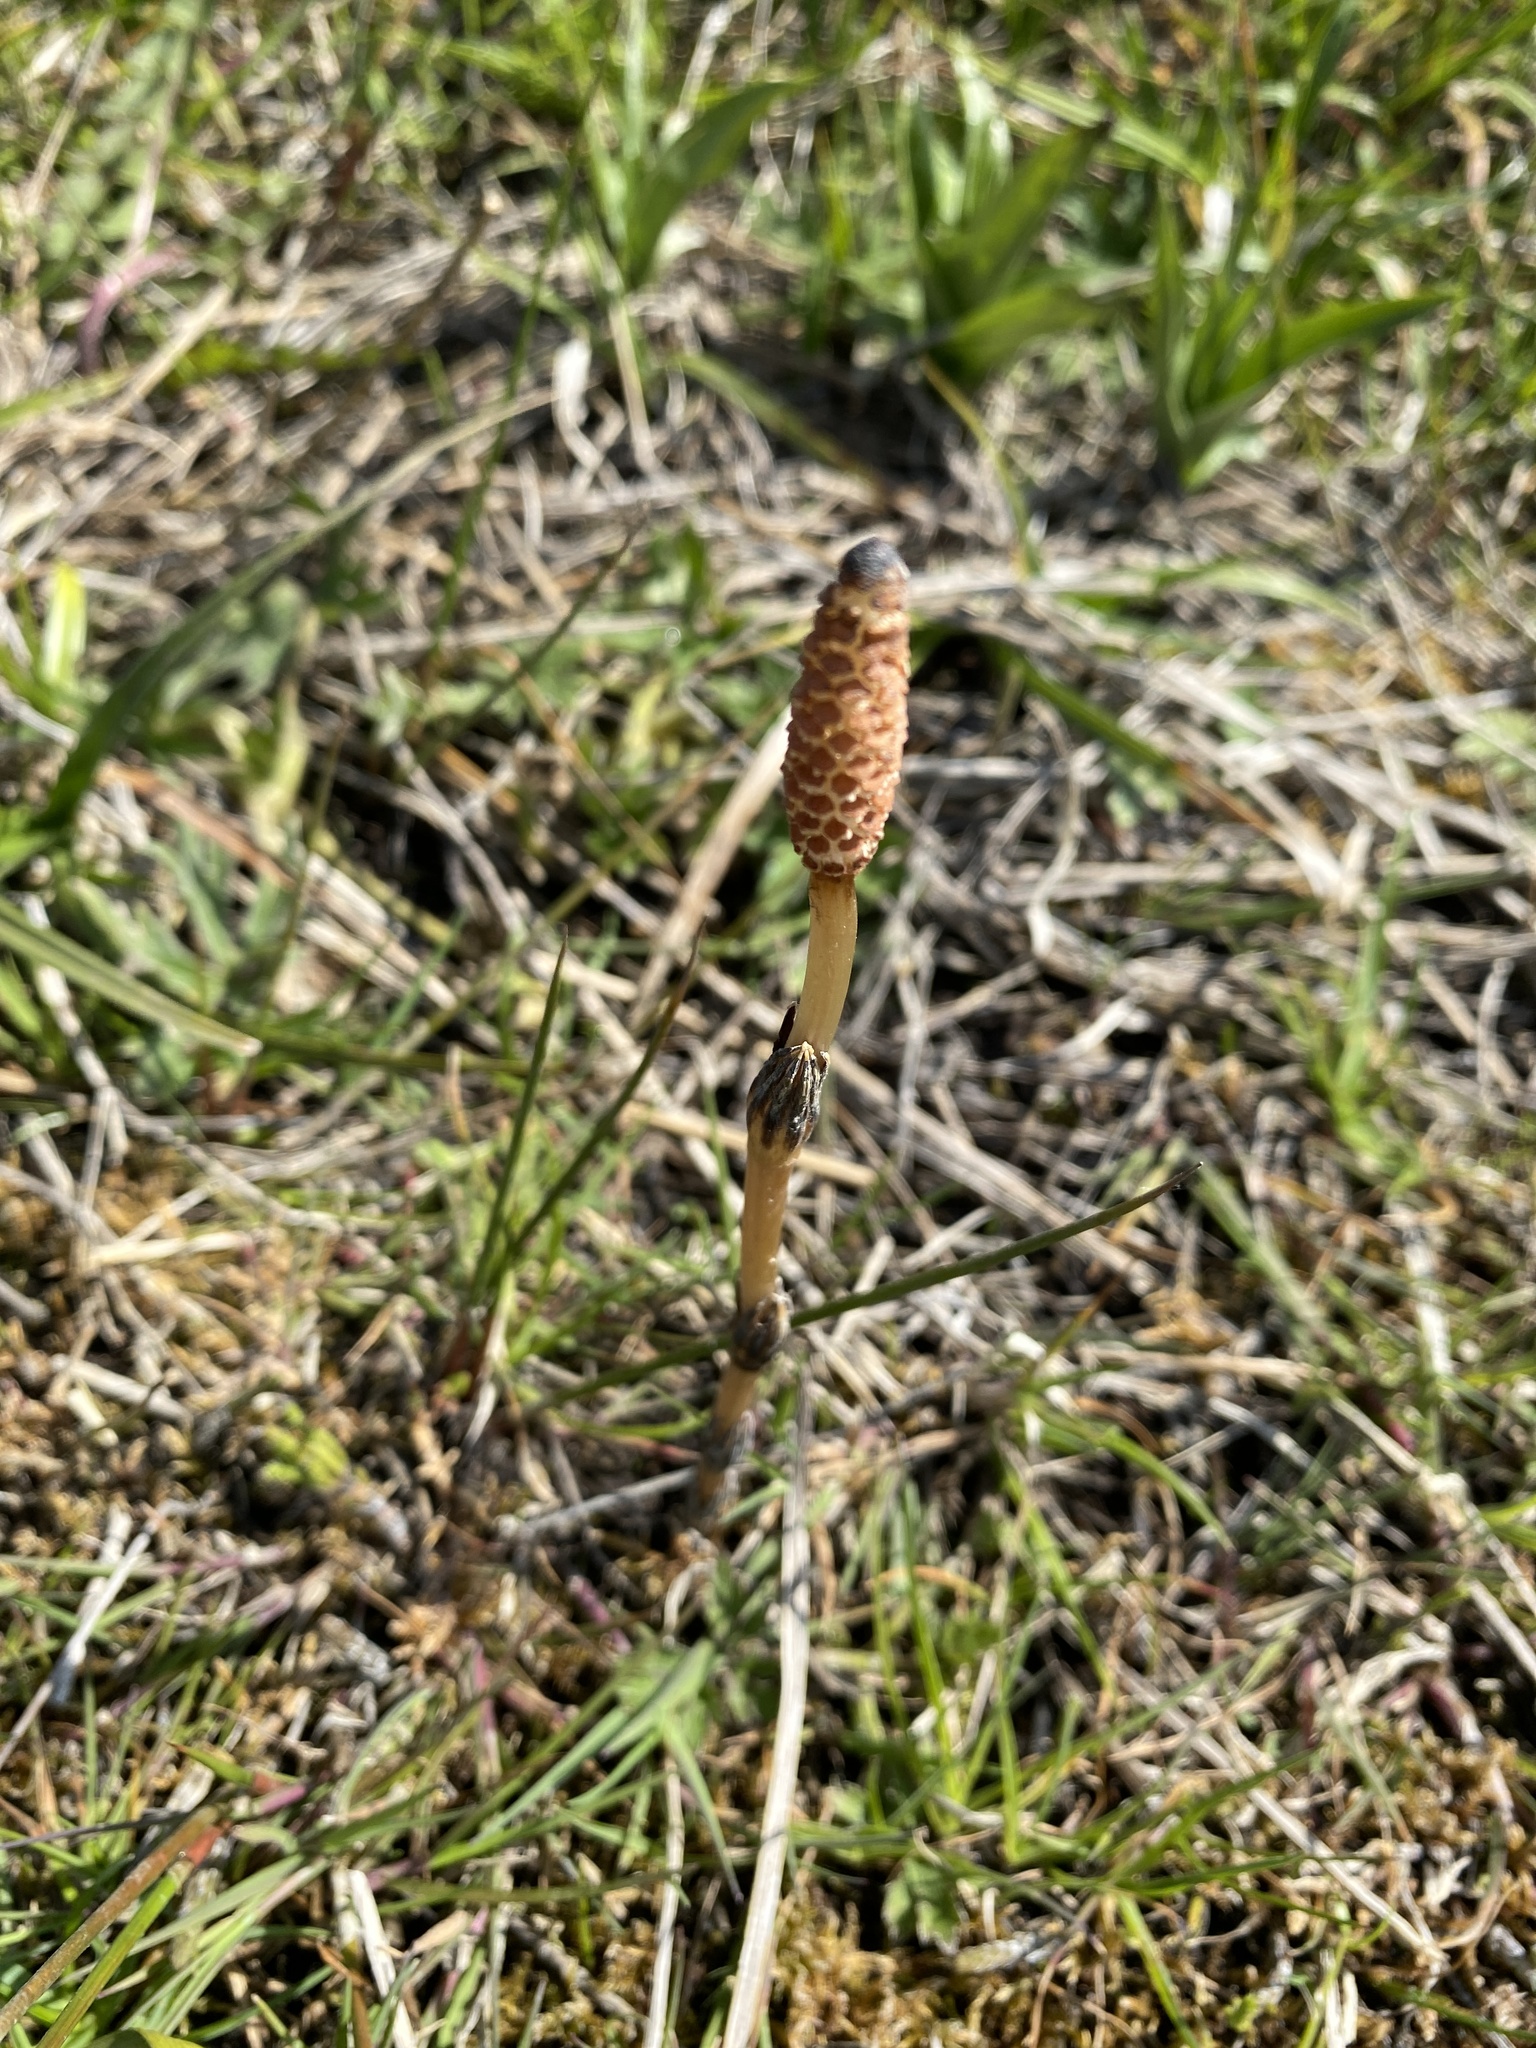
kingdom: Plantae
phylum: Tracheophyta
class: Polypodiopsida
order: Equisetales
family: Equisetaceae
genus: Equisetum
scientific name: Equisetum arvense
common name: Field horsetail
